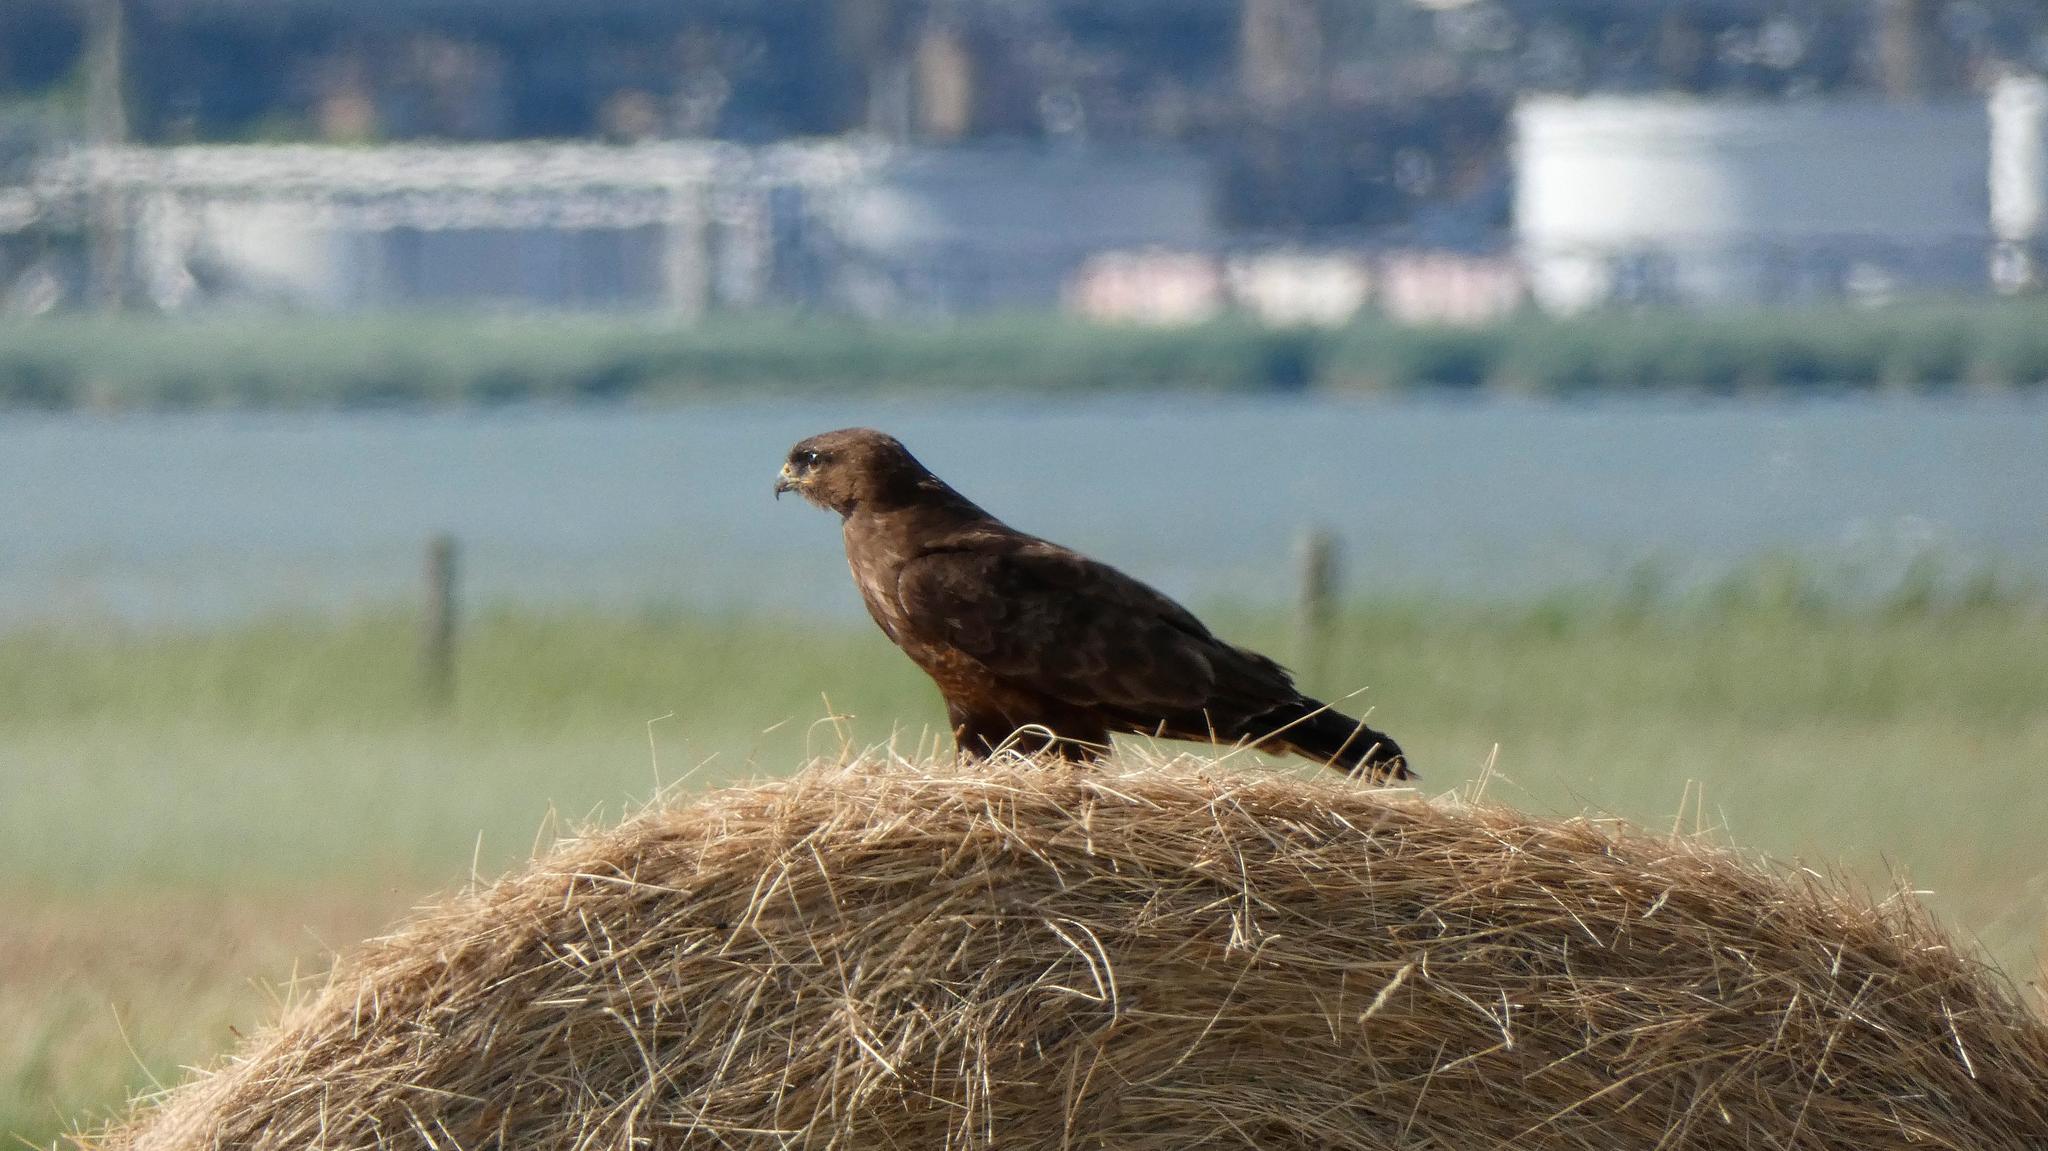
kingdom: Animalia
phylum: Chordata
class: Aves
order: Accipitriformes
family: Accipitridae
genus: Milvus
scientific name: Milvus migrans
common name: Black kite
